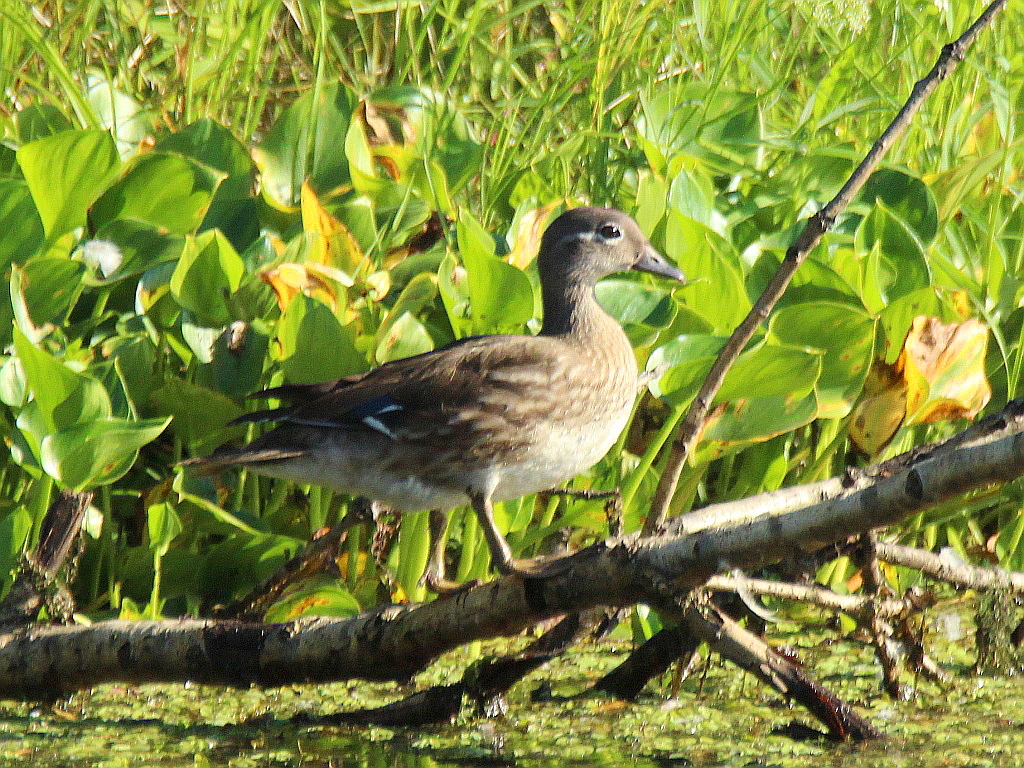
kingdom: Animalia
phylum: Chordata
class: Aves
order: Anseriformes
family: Anatidae
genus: Aix
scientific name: Aix galericulata
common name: Mandarin duck
